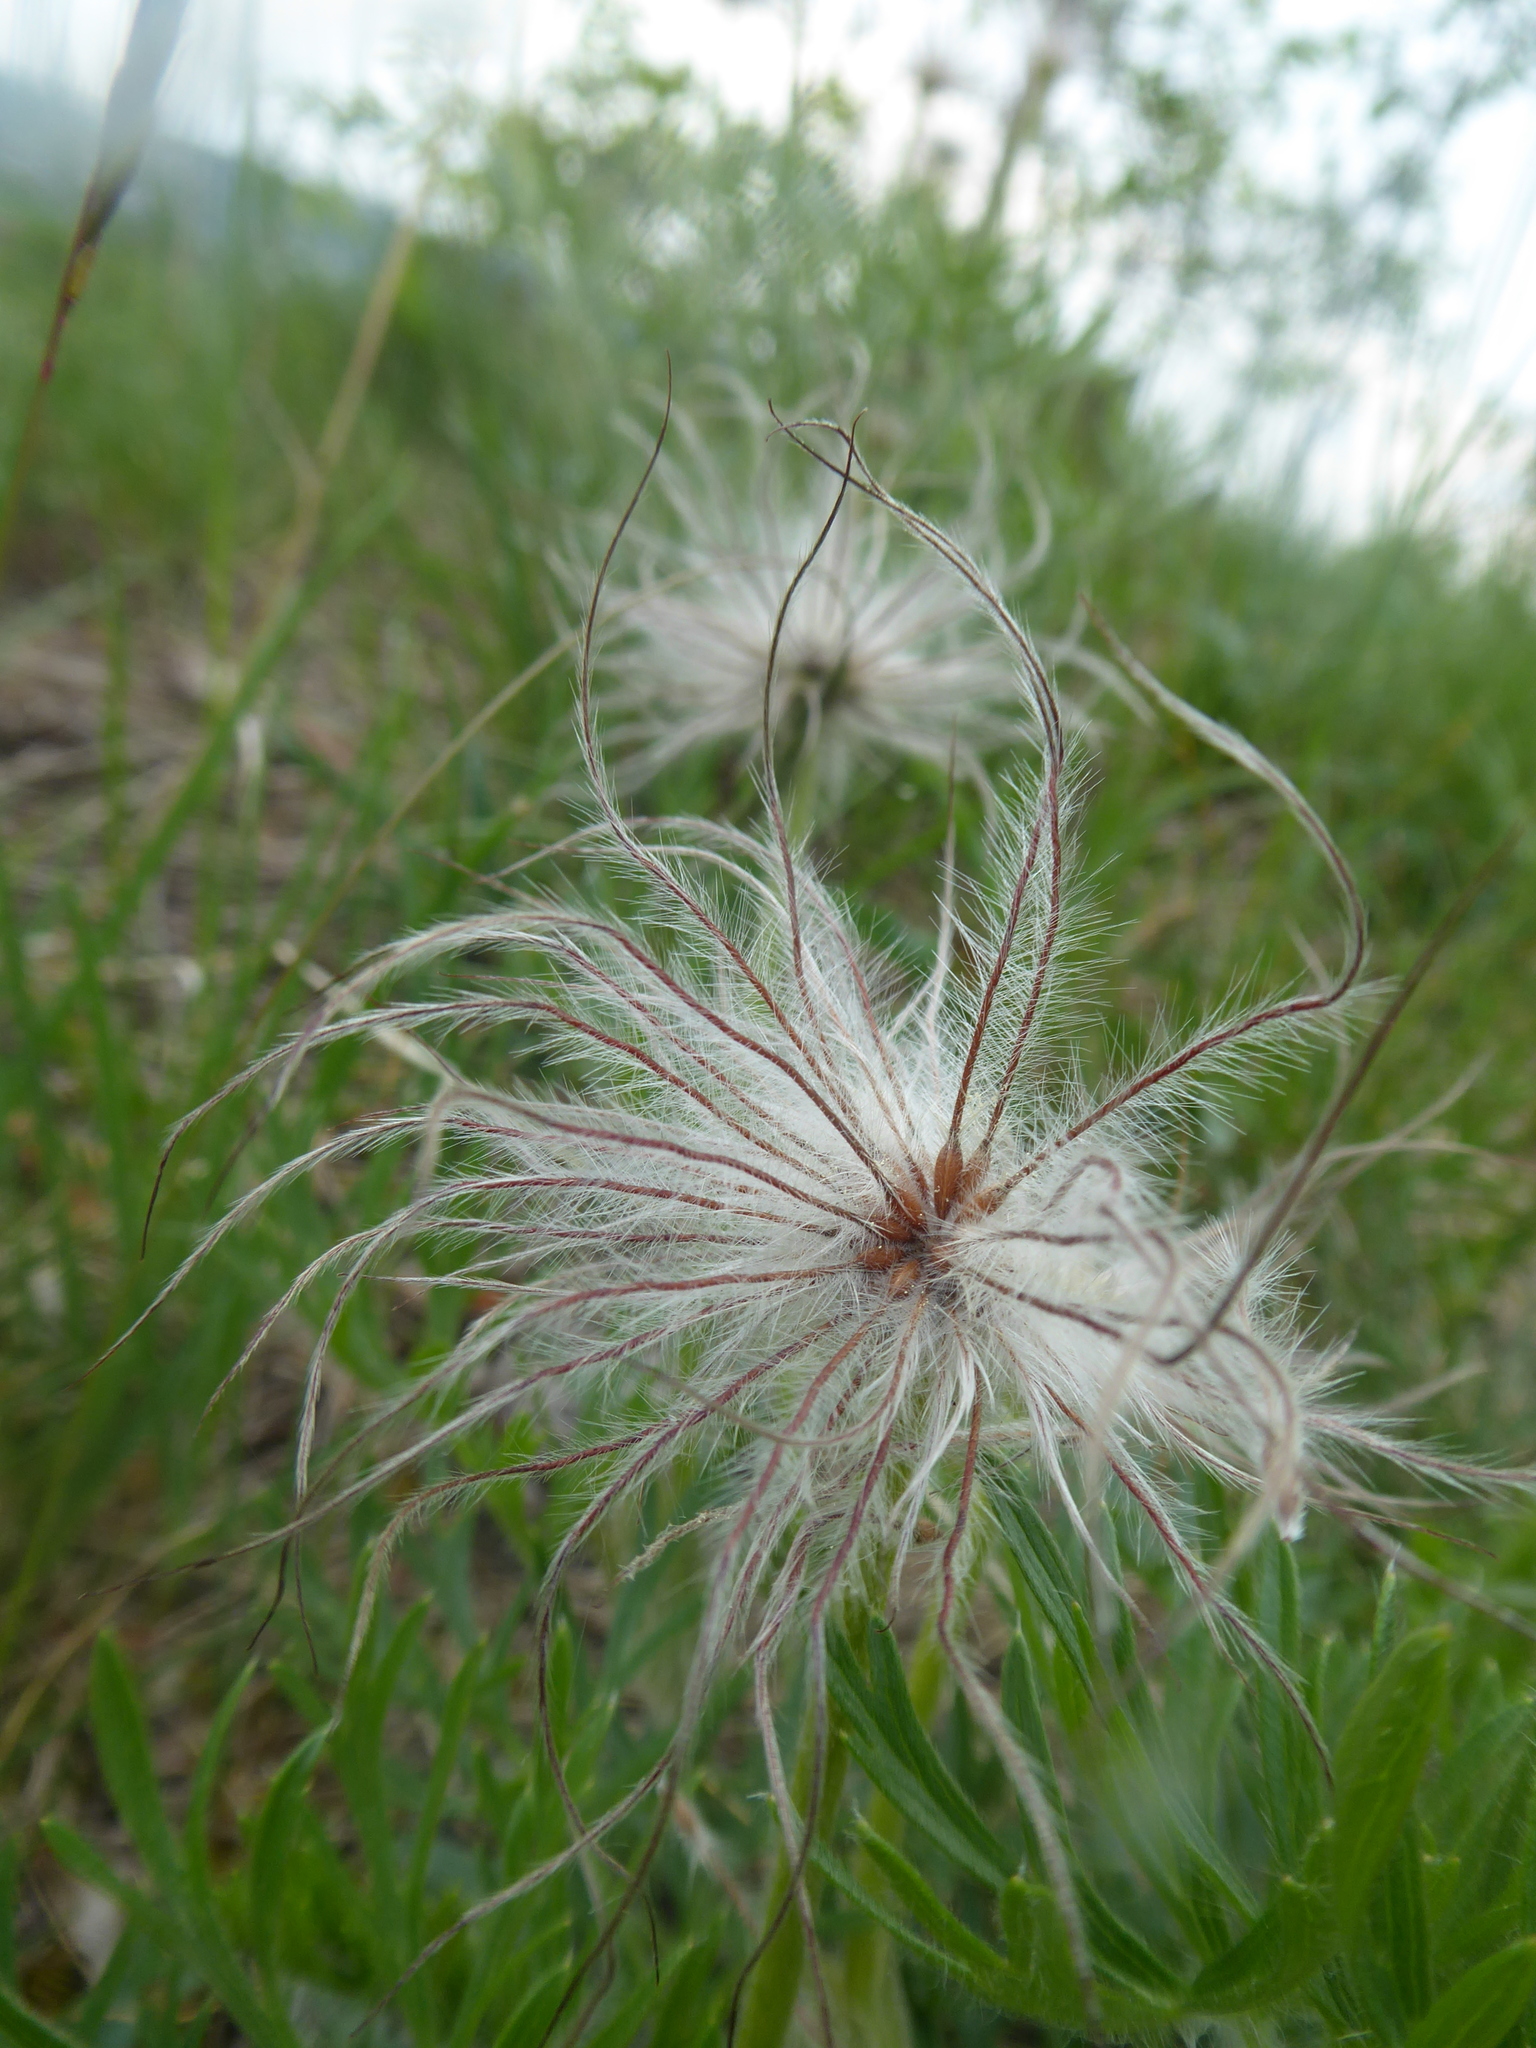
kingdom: Plantae
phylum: Tracheophyta
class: Magnoliopsida
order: Ranunculales
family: Ranunculaceae
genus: Pulsatilla
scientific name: Pulsatilla grandis
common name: Greater pasque flower
